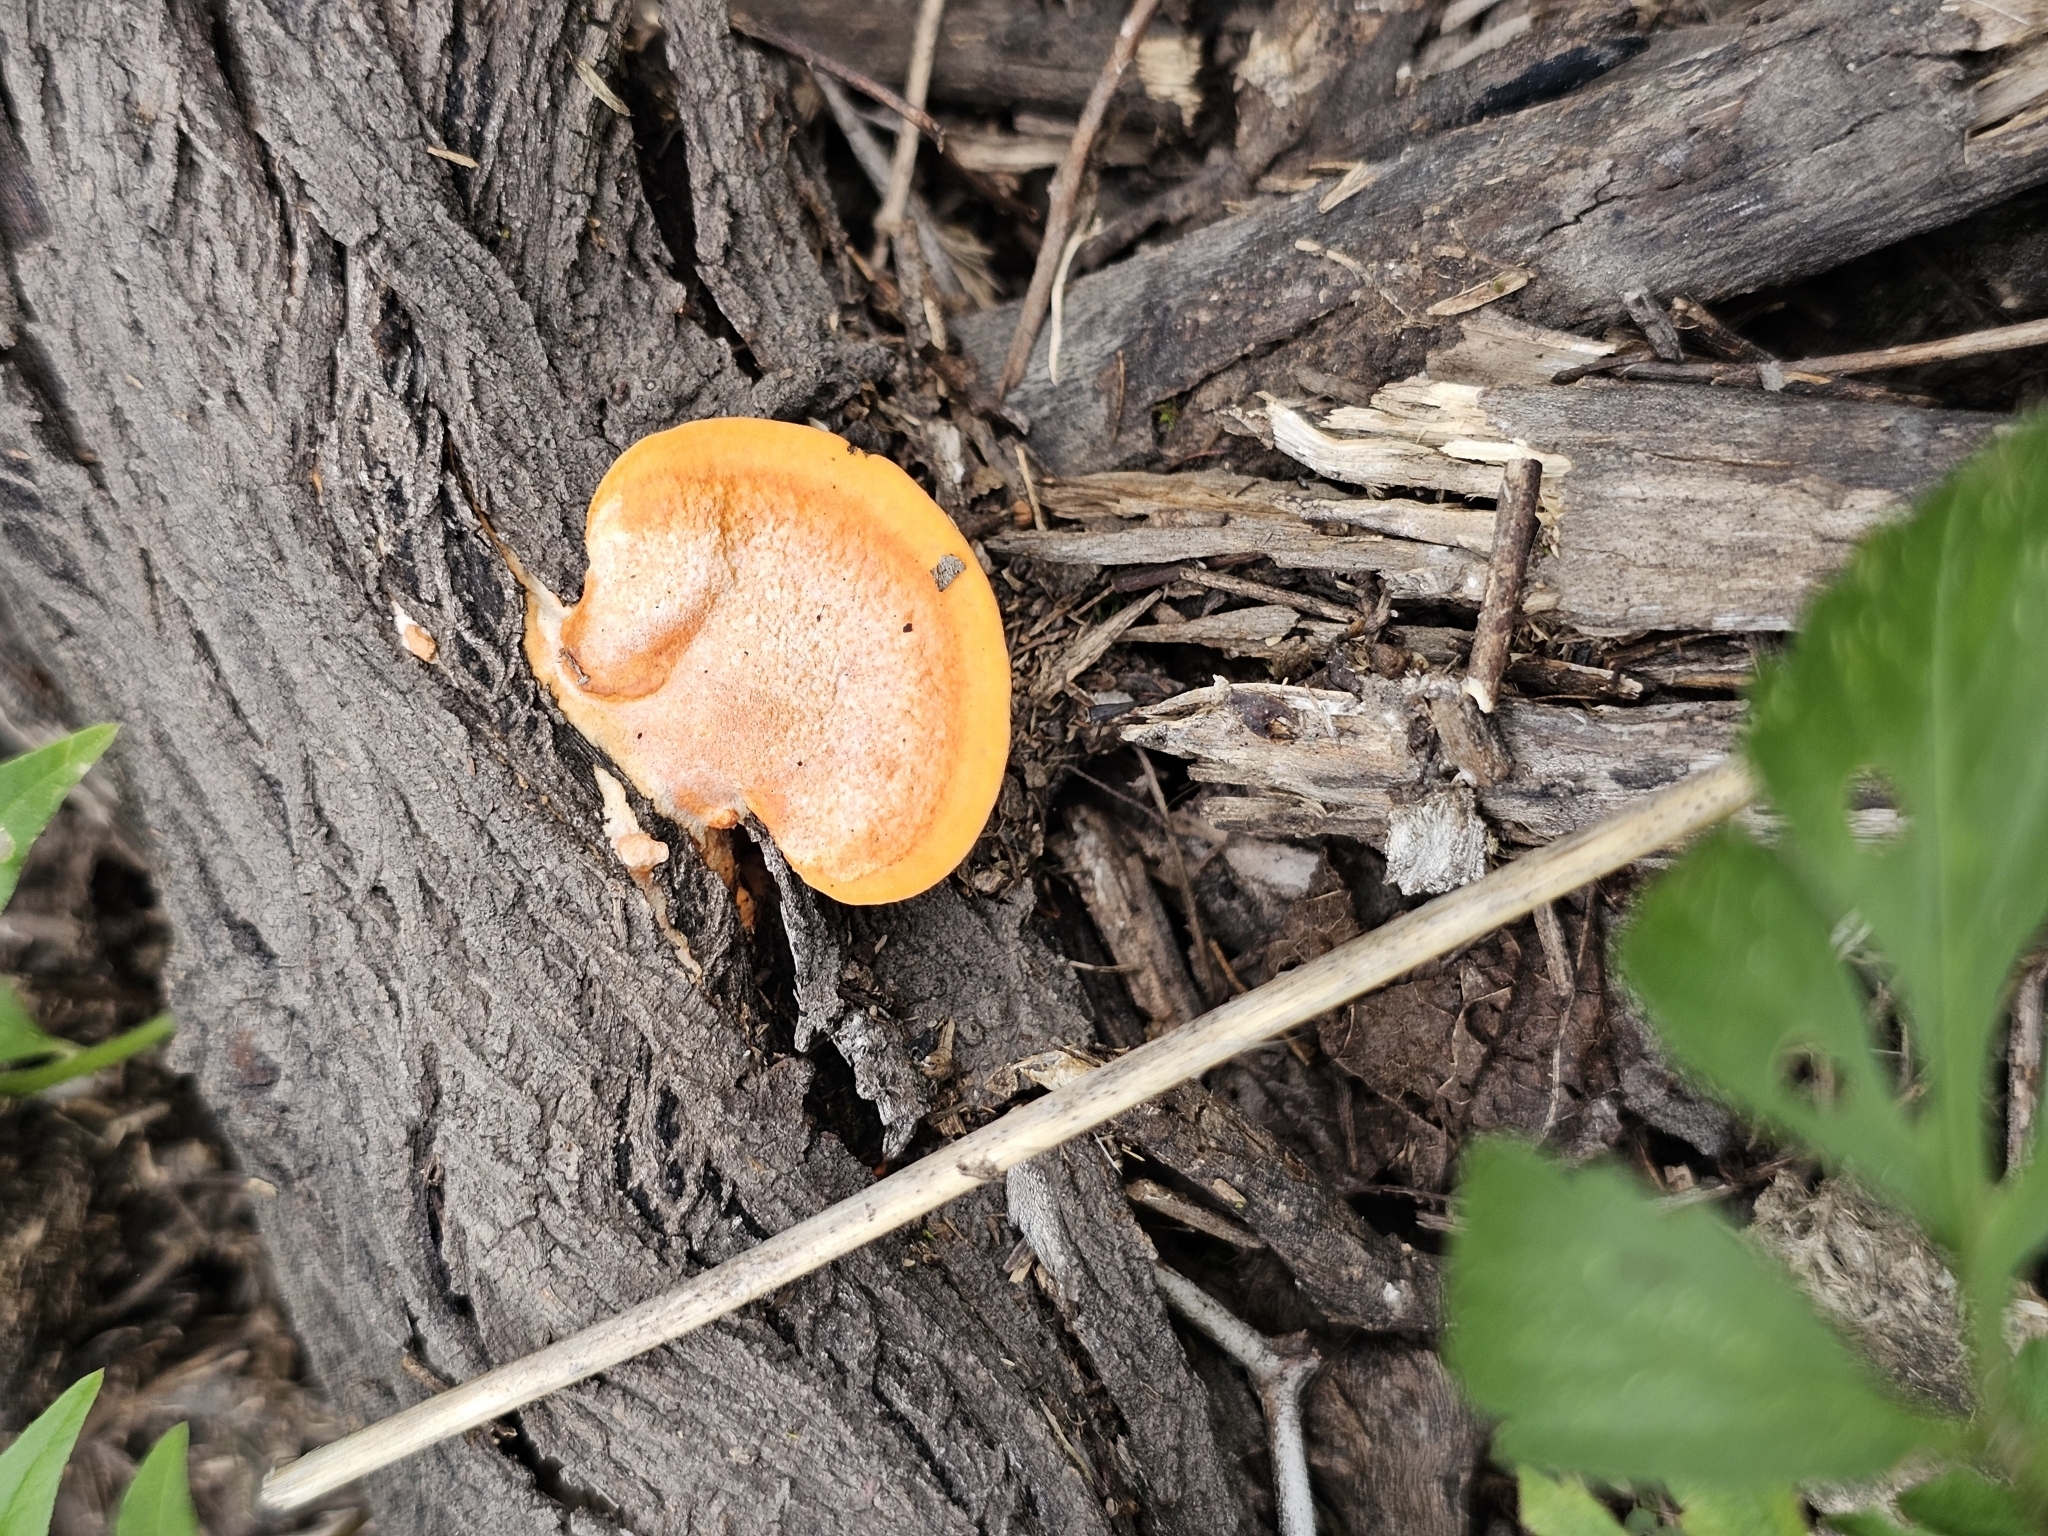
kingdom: Fungi
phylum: Basidiomycota
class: Agaricomycetes
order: Polyporales
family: Polyporaceae
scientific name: Polyporaceae
